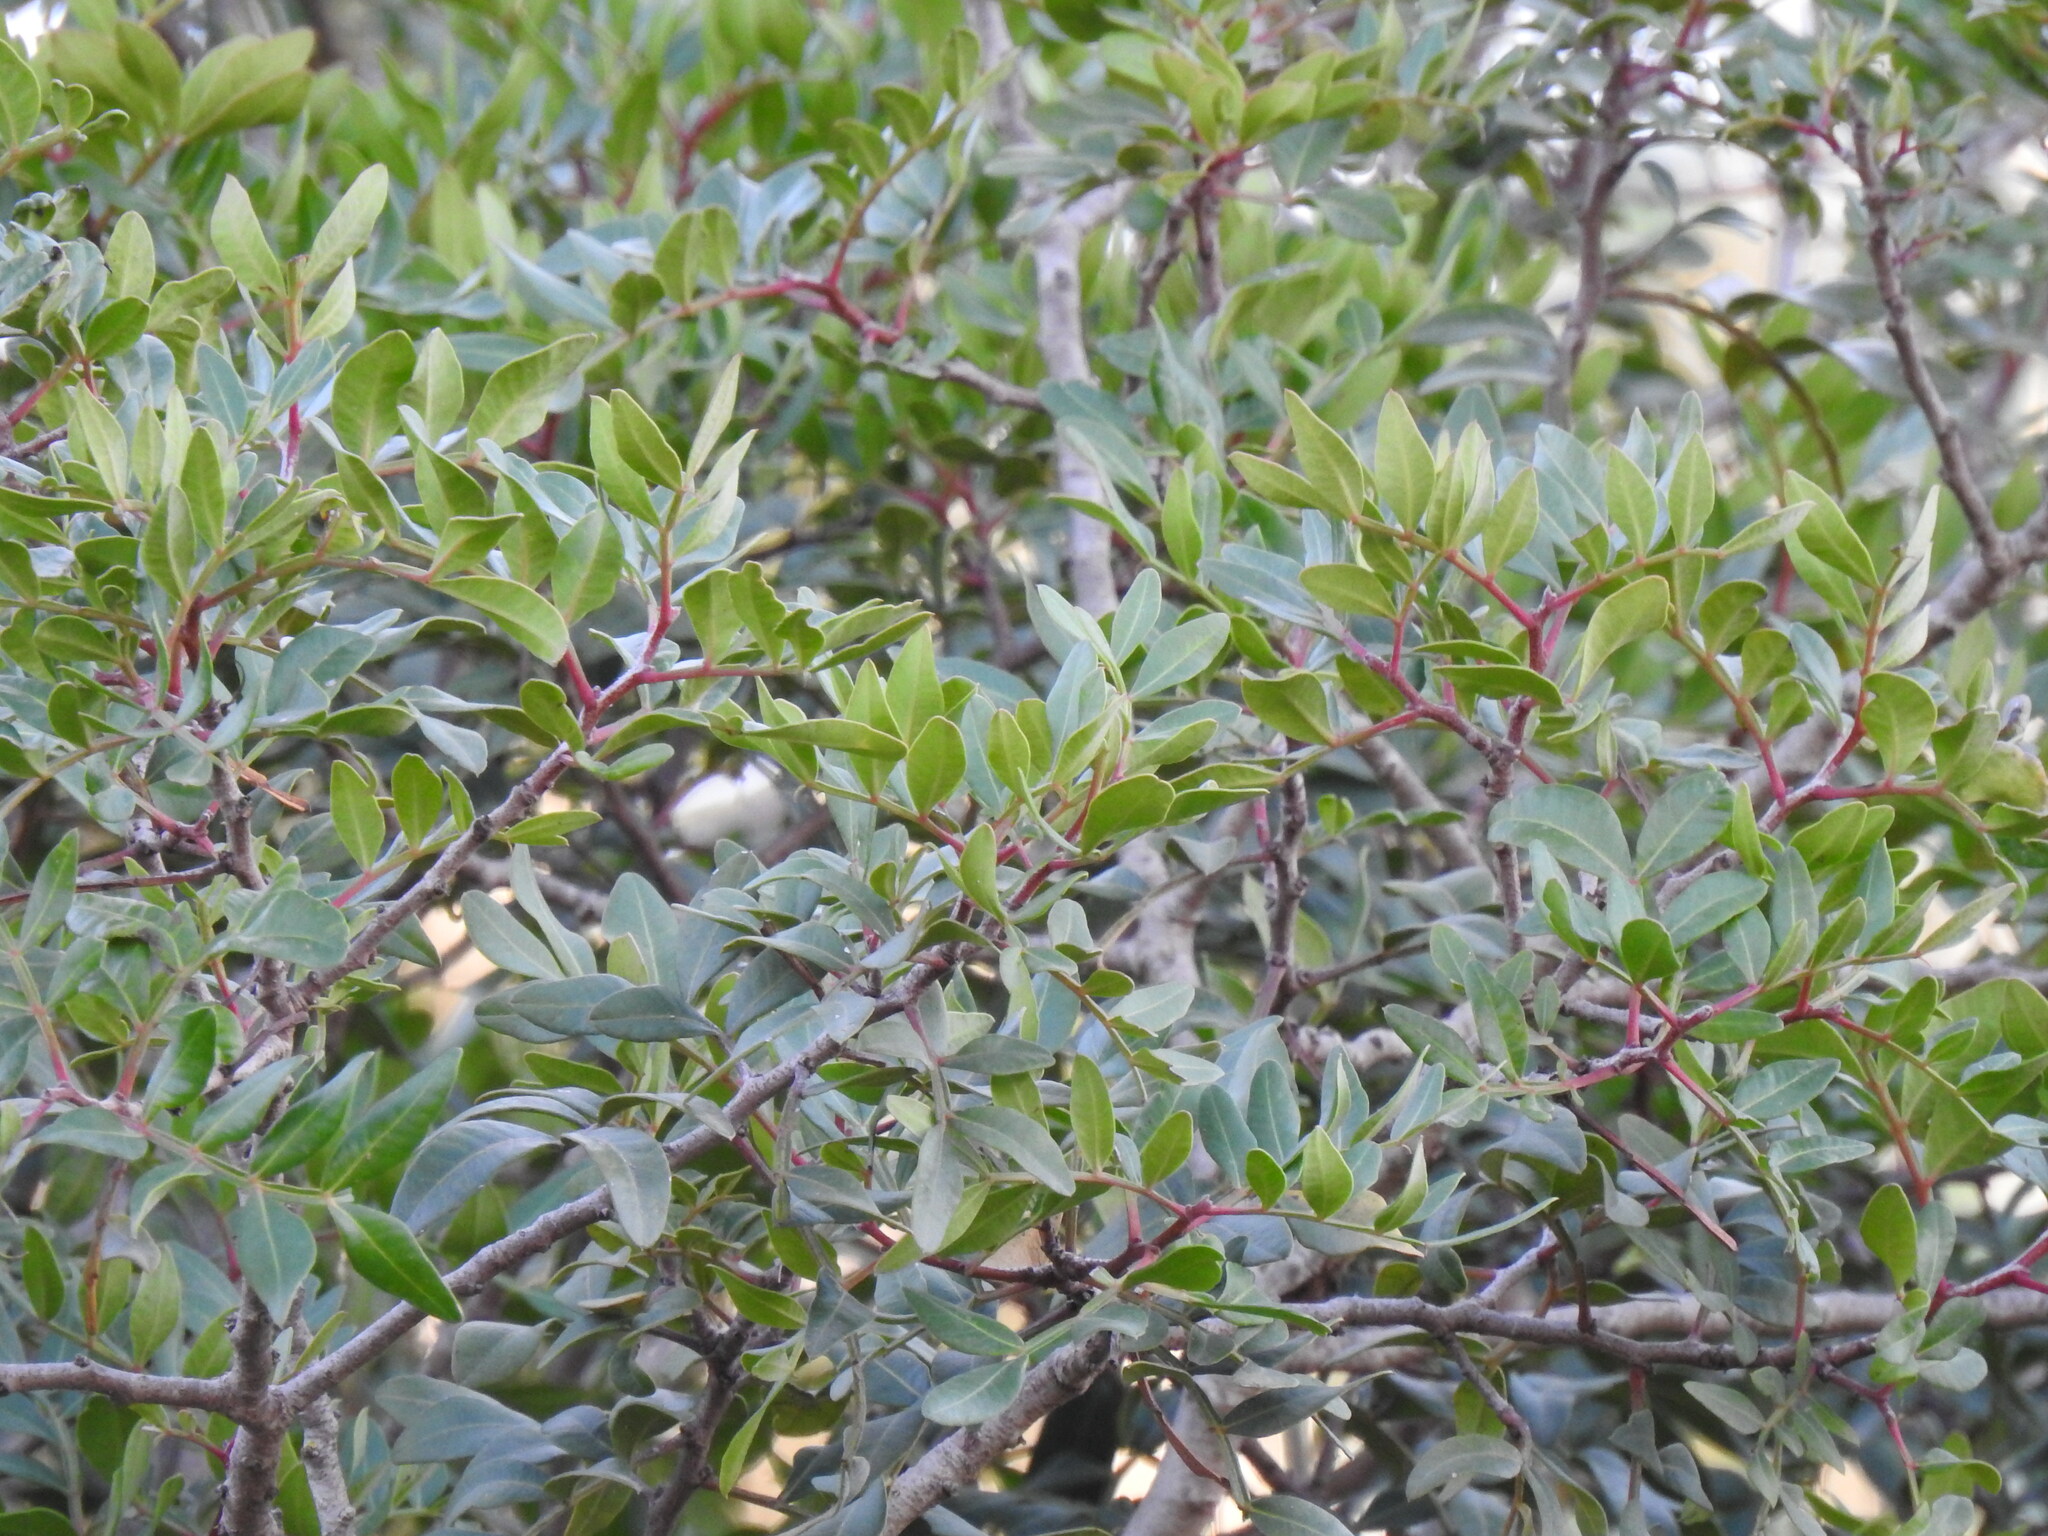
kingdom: Plantae
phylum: Tracheophyta
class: Magnoliopsida
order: Sapindales
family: Anacardiaceae
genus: Pistacia
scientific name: Pistacia lentiscus
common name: Lentisk
